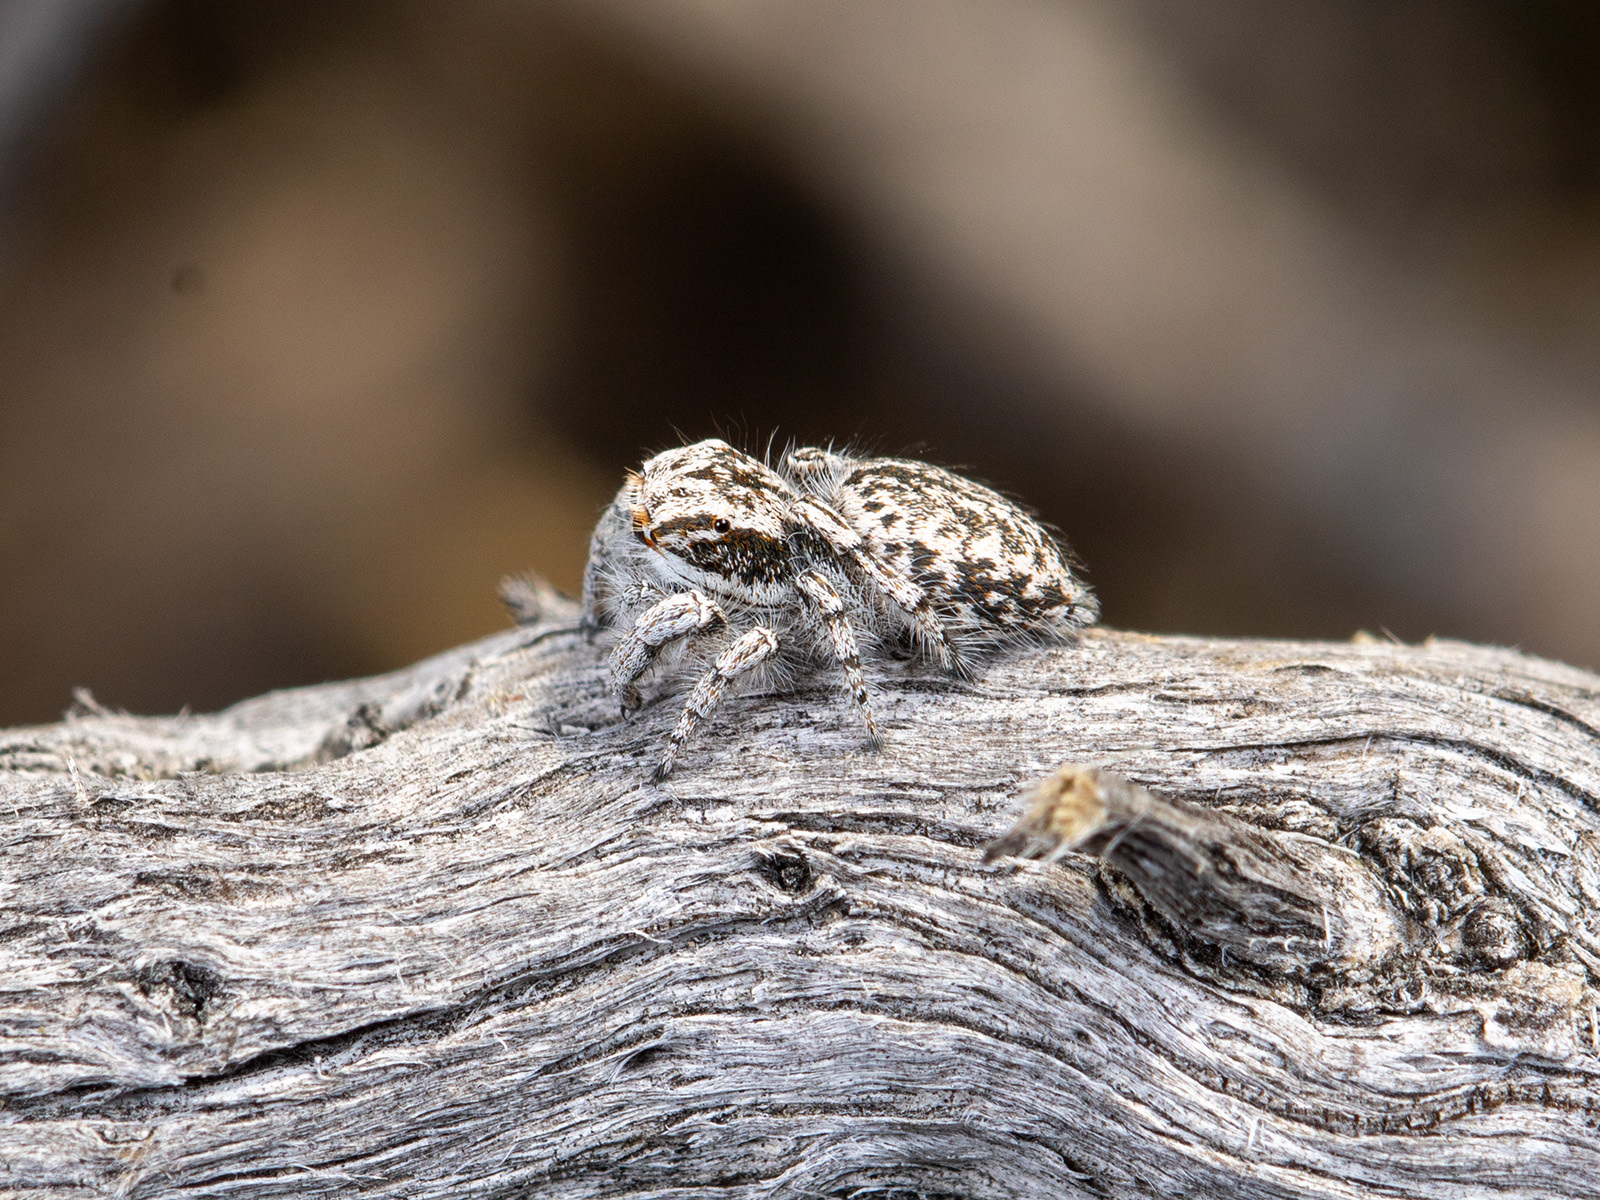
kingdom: Animalia
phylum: Arthropoda
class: Arachnida
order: Araneae
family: Salticidae
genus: Marusyllus
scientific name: Marusyllus aralicus
